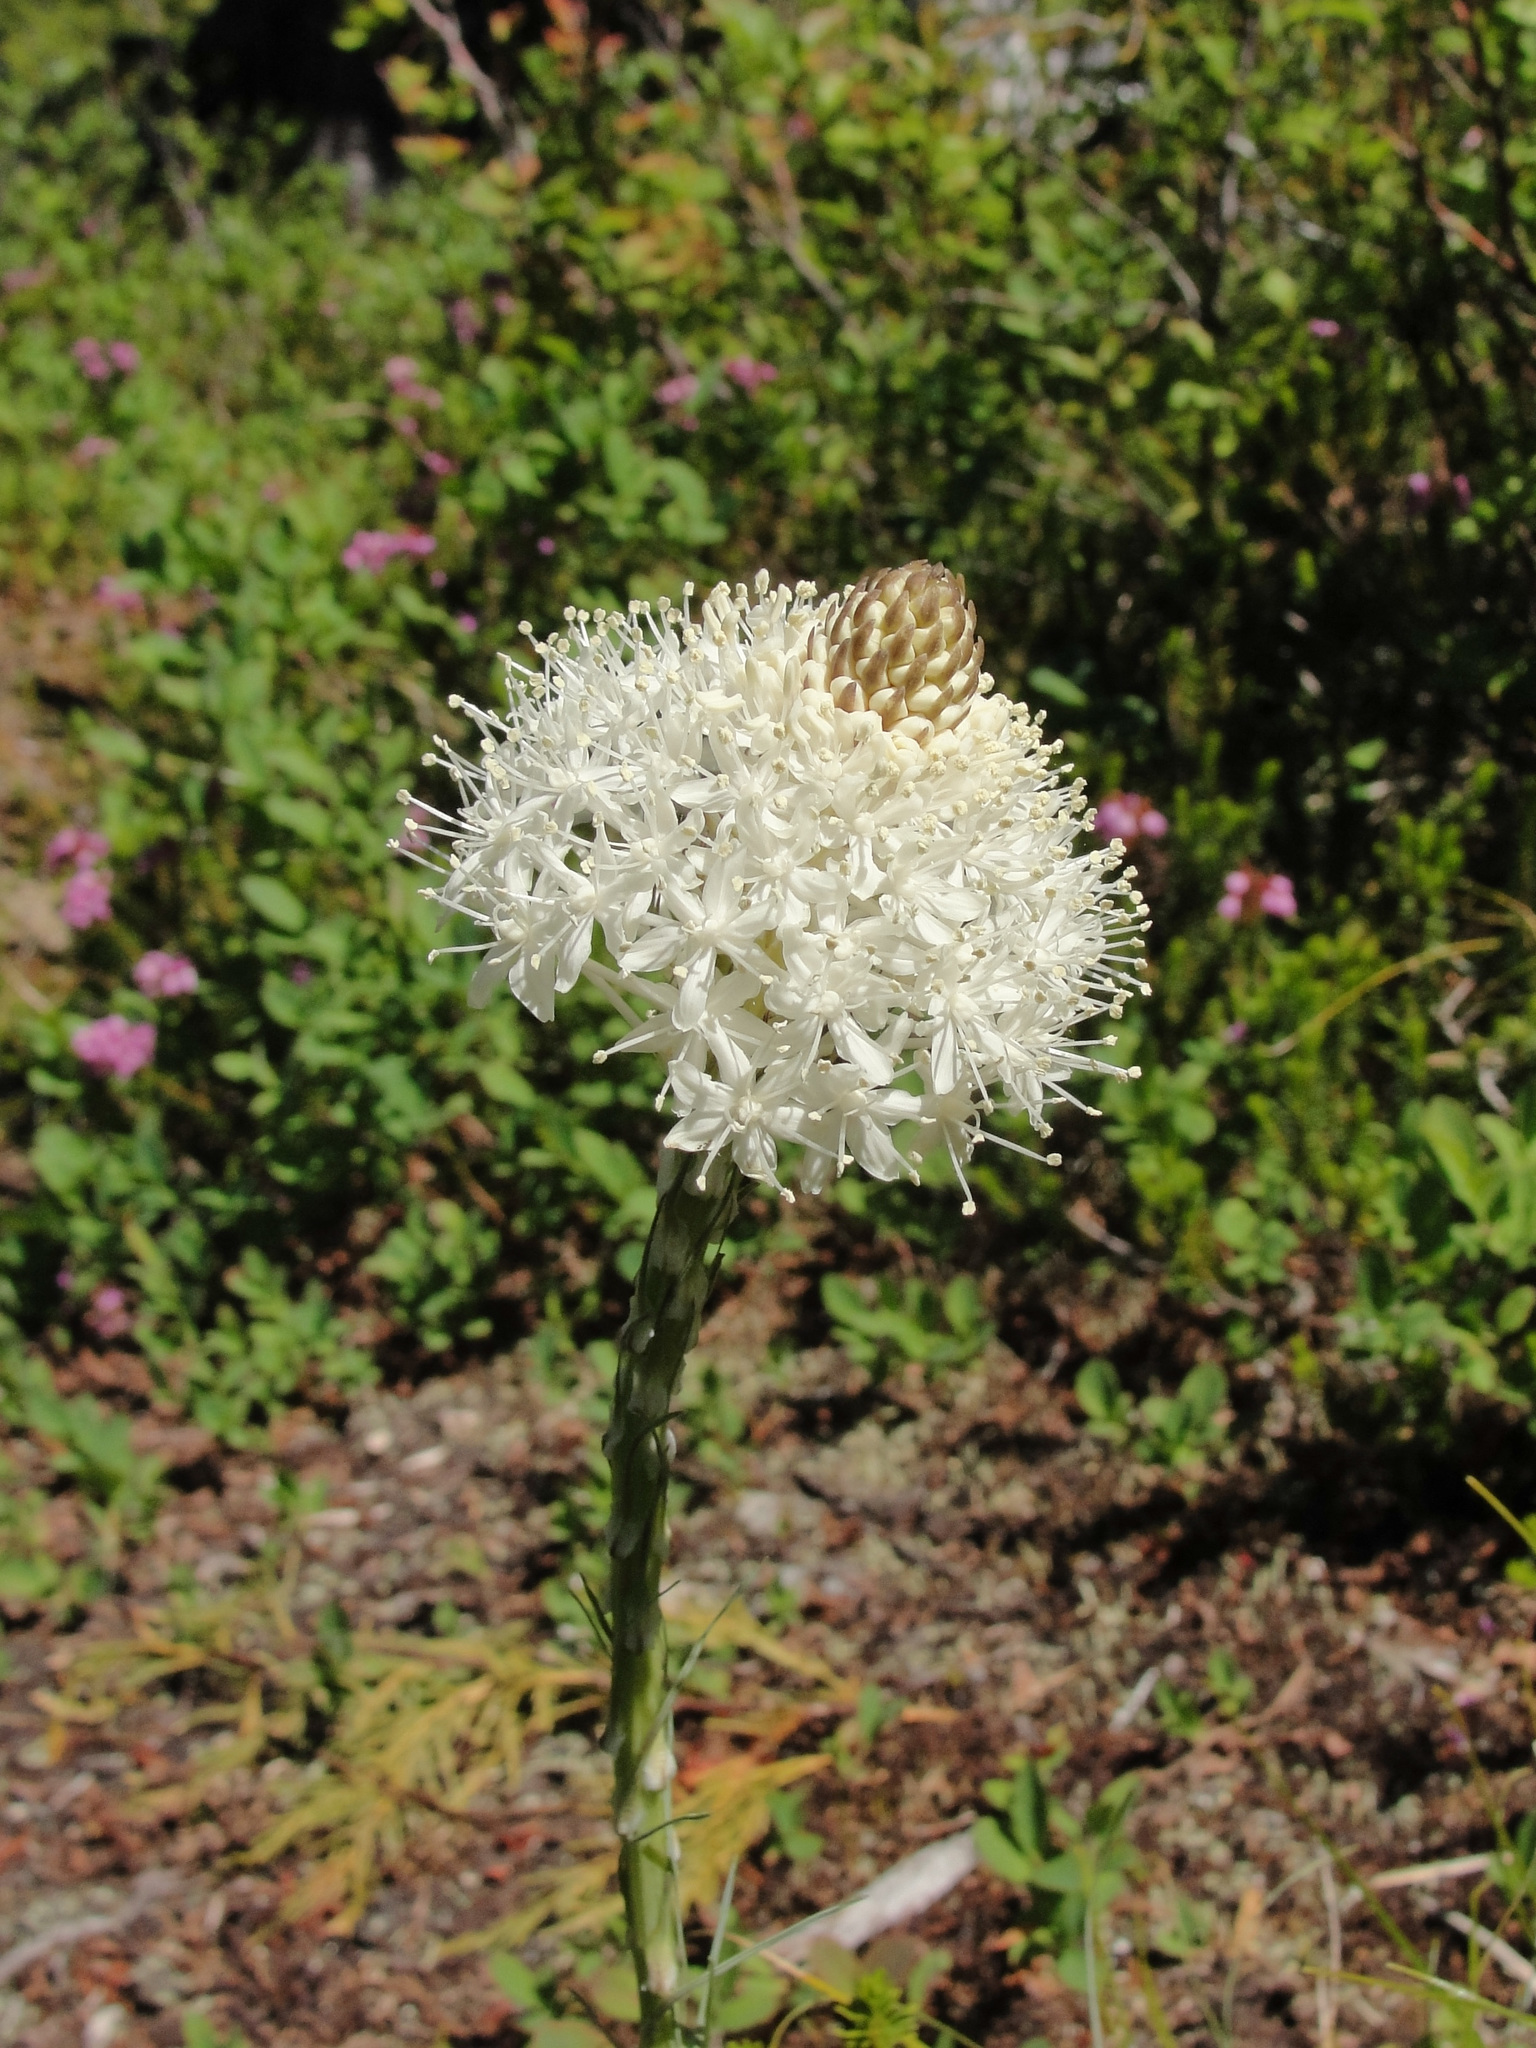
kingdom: Plantae
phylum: Tracheophyta
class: Liliopsida
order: Liliales
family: Melanthiaceae
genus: Xerophyllum
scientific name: Xerophyllum tenax
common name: Bear-grass
